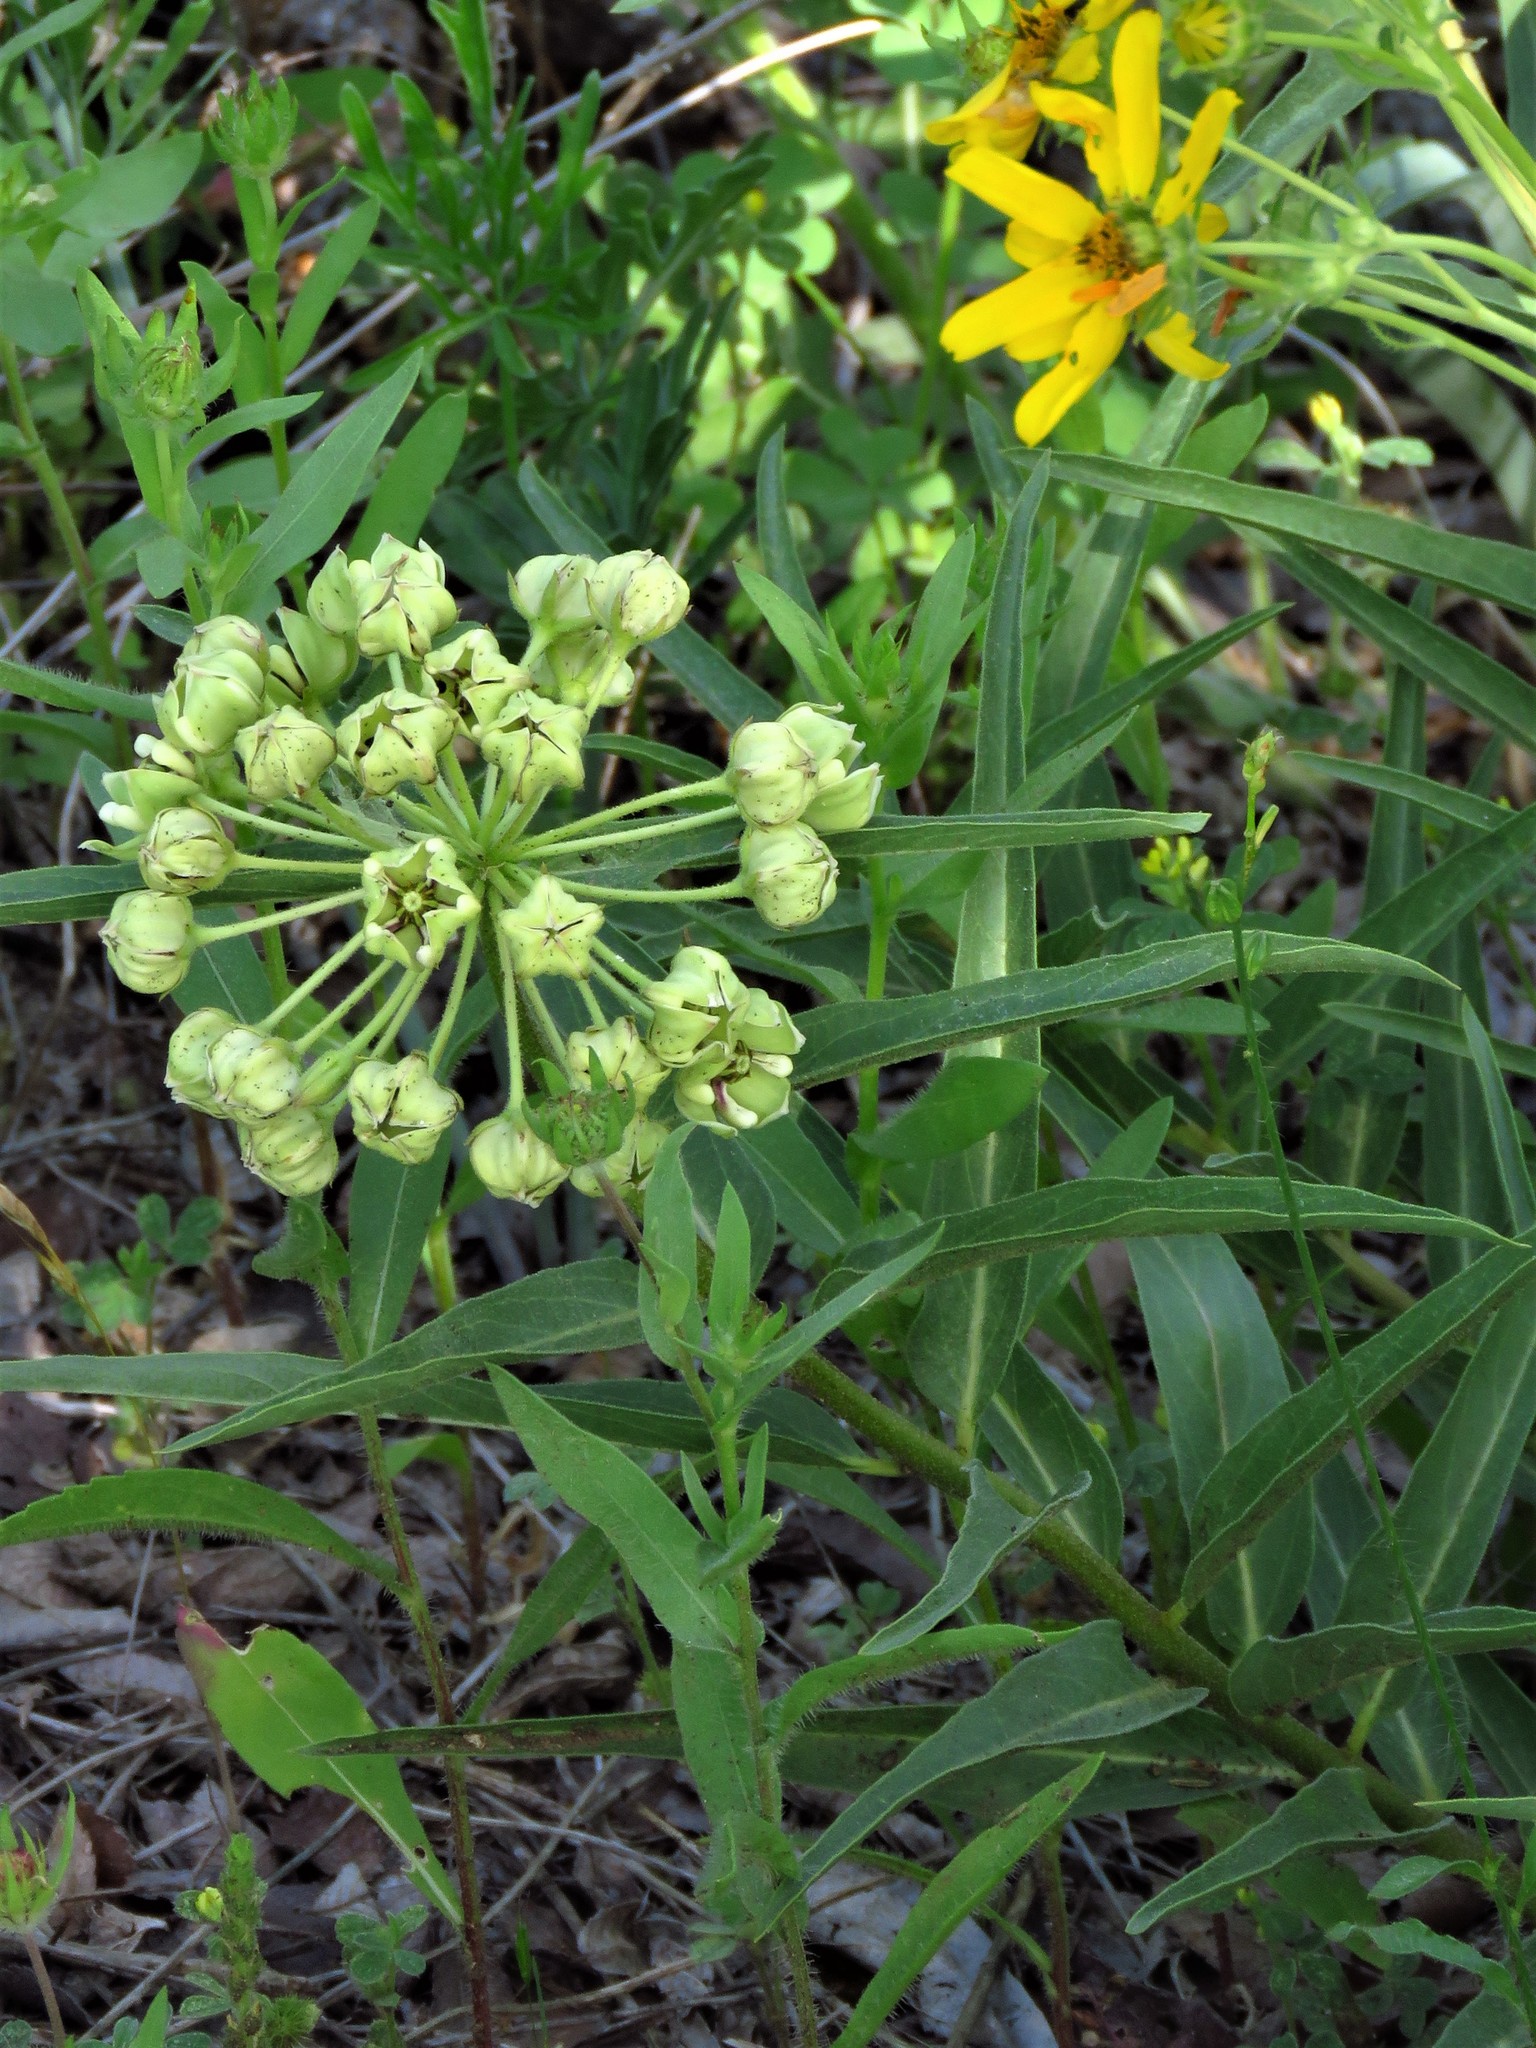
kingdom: Plantae
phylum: Tracheophyta
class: Magnoliopsida
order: Gentianales
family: Apocynaceae
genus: Asclepias
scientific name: Asclepias asperula
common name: Antelope horns
